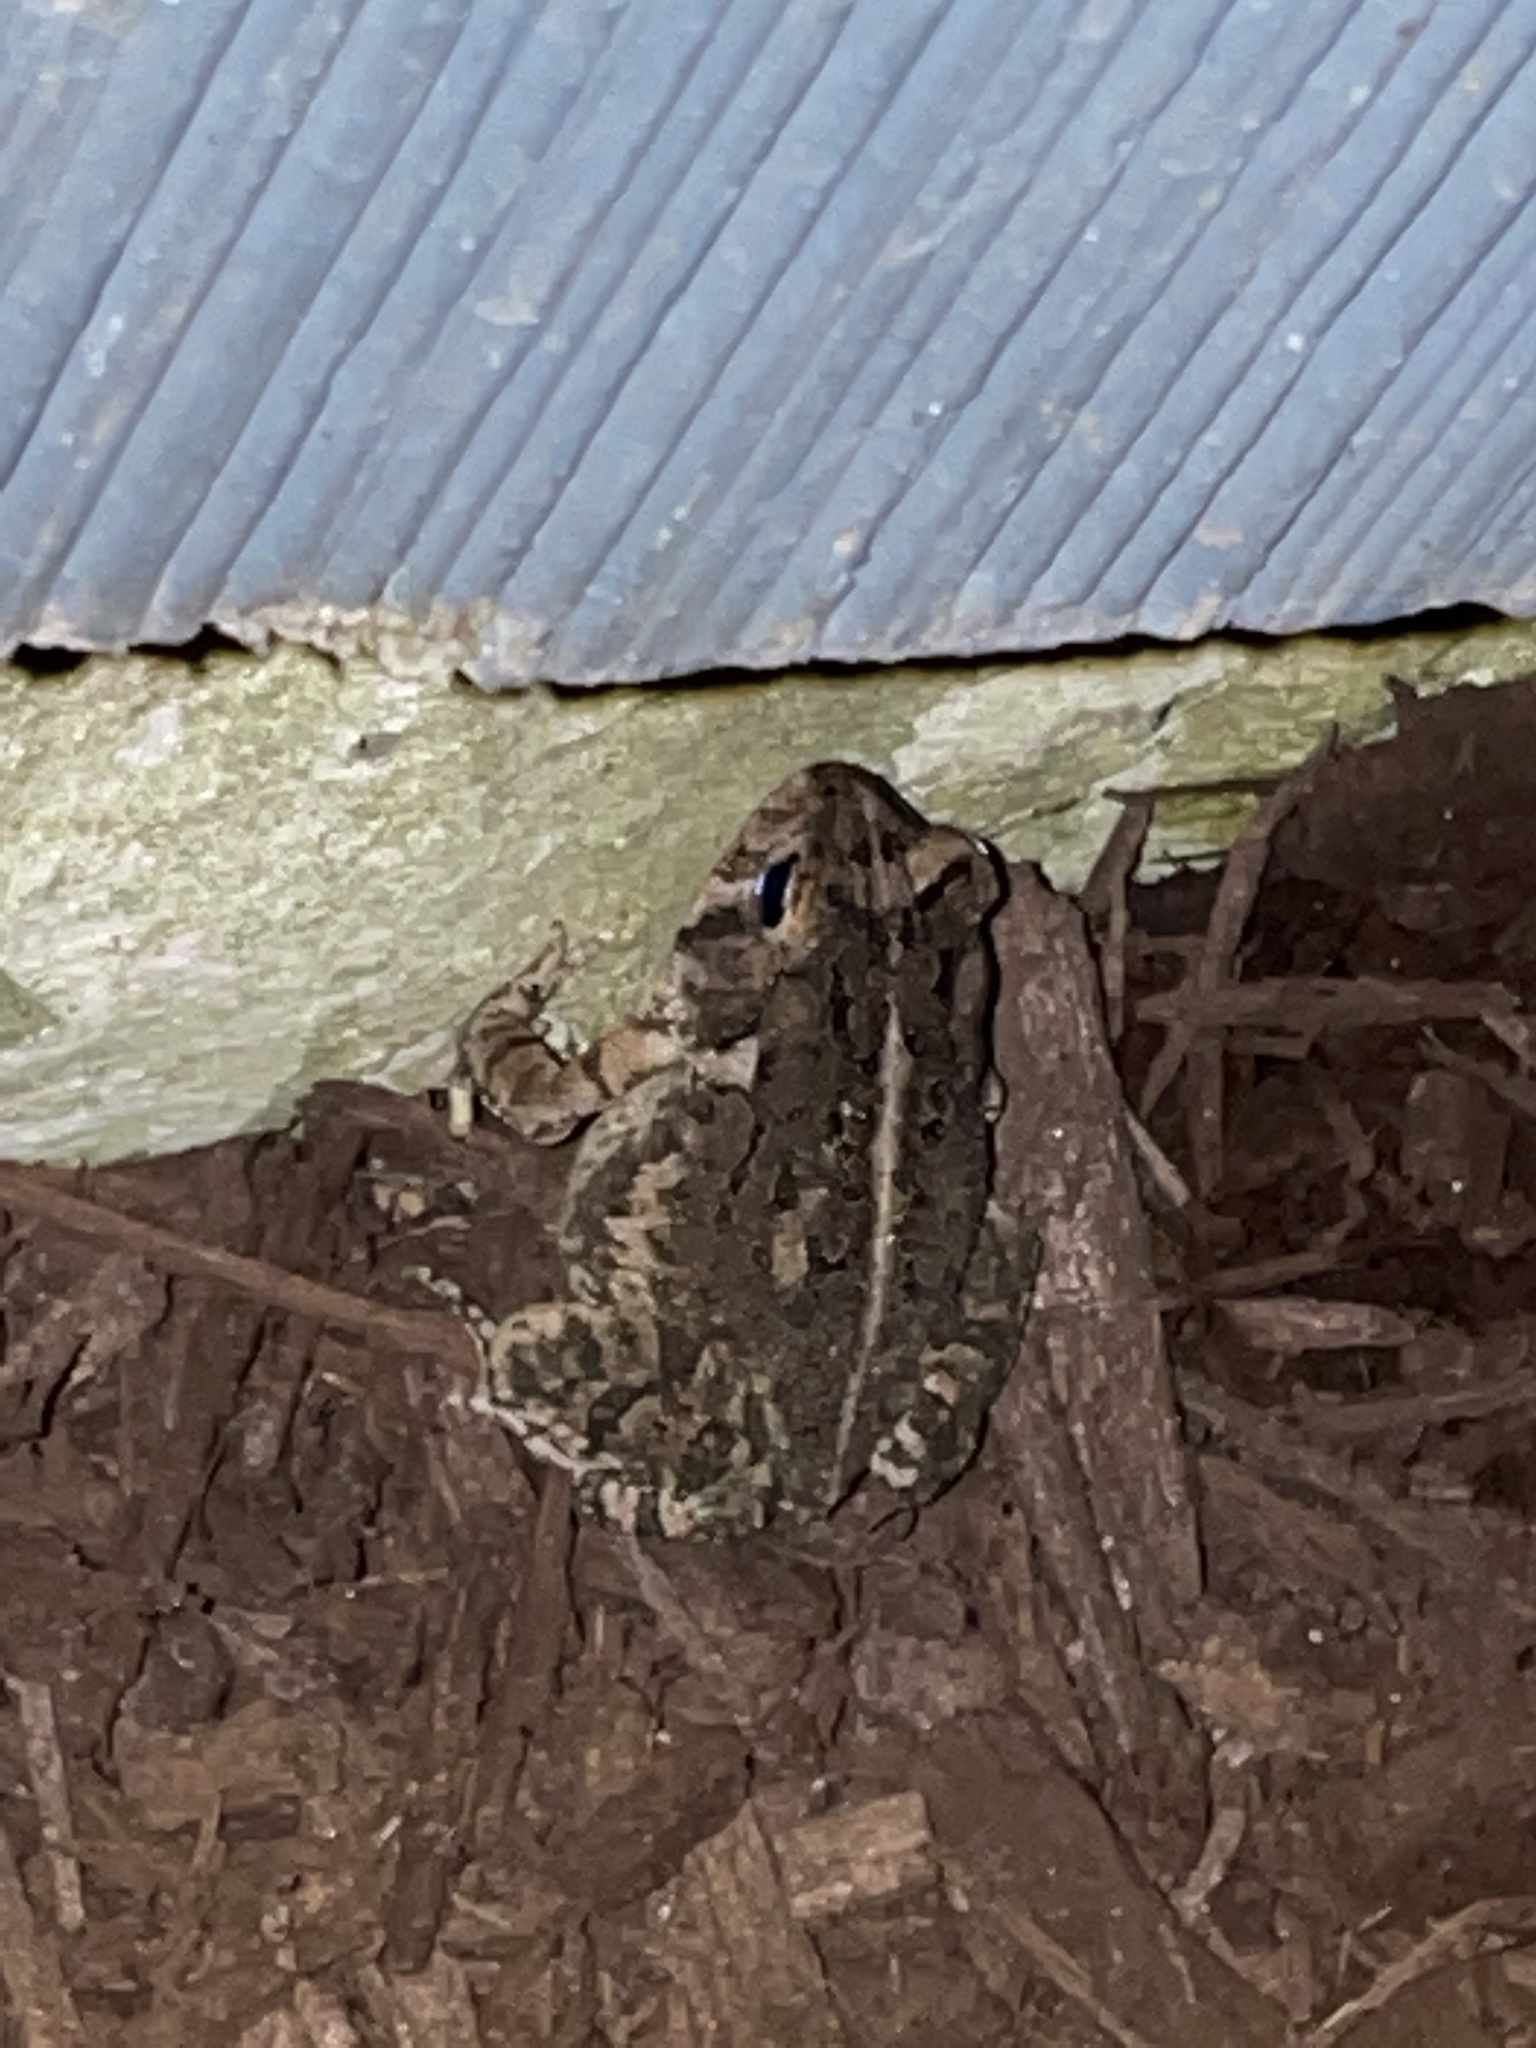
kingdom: Animalia
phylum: Chordata
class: Amphibia
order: Anura
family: Bufonidae
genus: Anaxyrus
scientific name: Anaxyrus fowleri
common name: Fowler's toad
